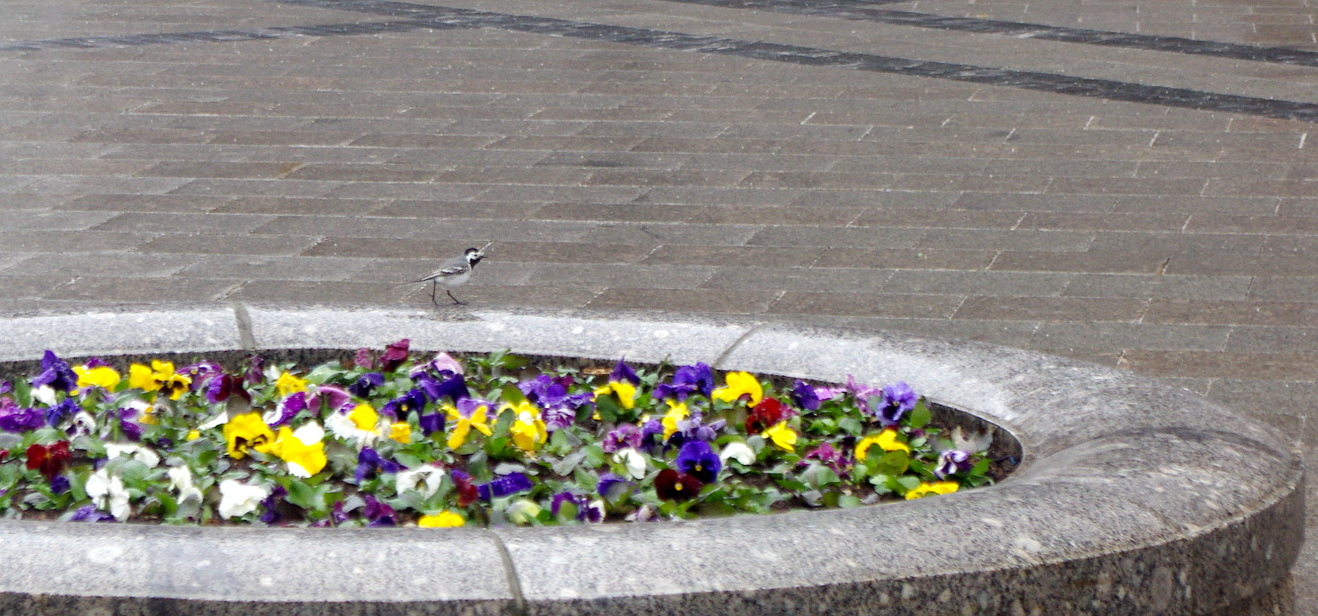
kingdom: Animalia
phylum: Chordata
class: Aves
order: Passeriformes
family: Motacillidae
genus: Motacilla
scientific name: Motacilla alba
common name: White wagtail
